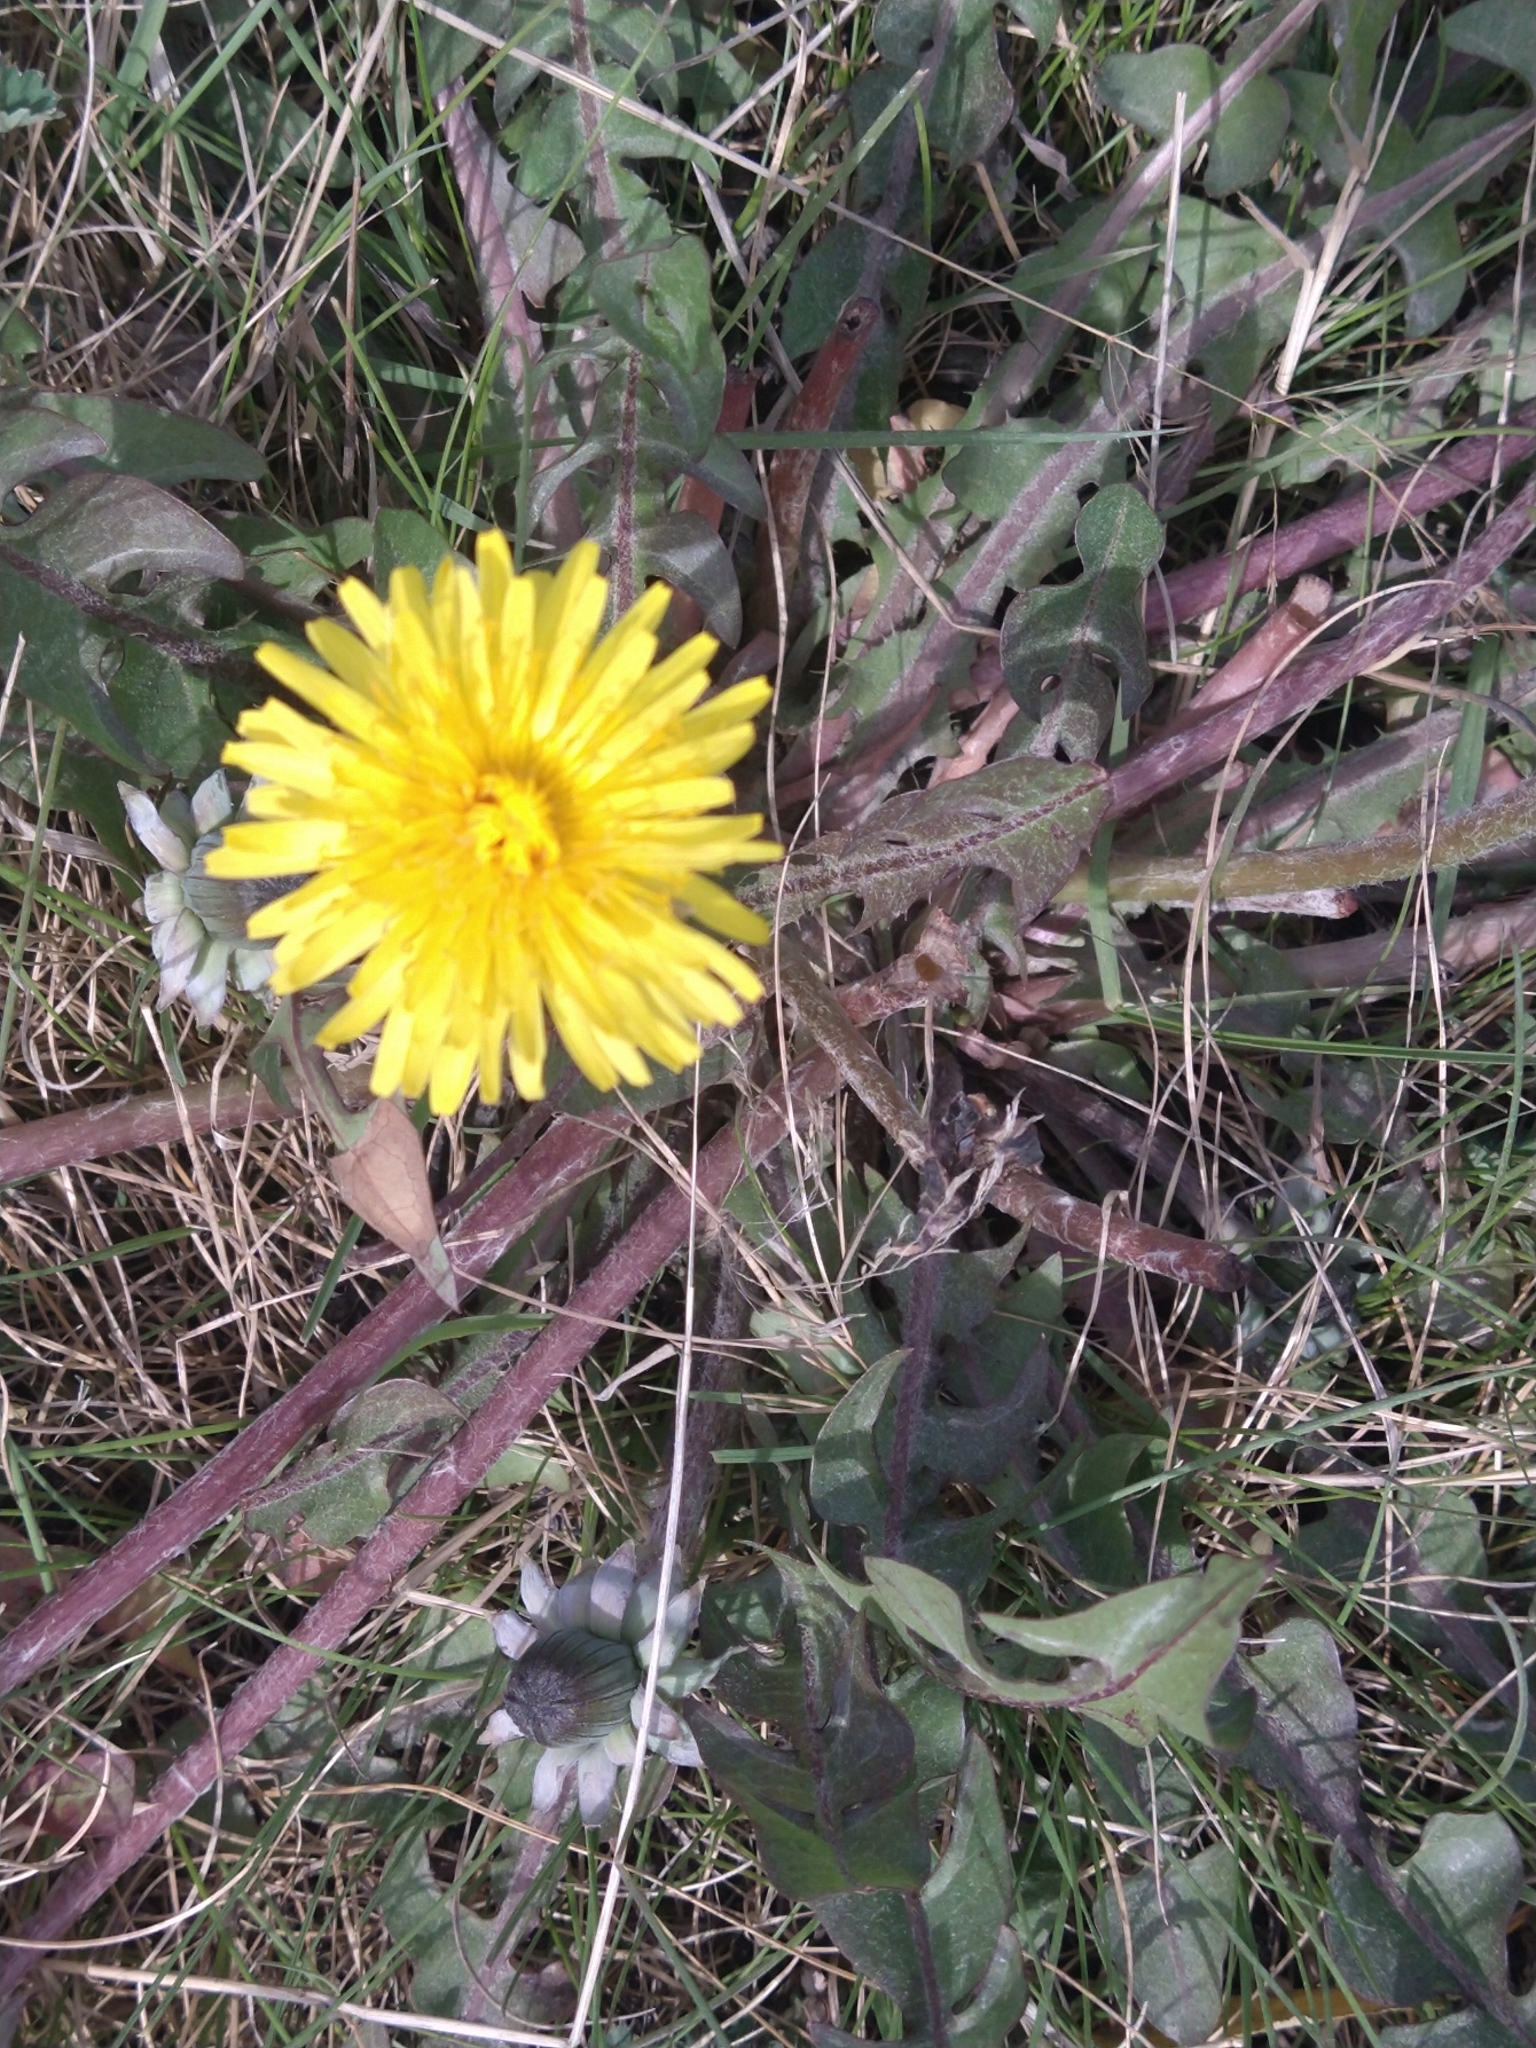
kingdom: Plantae
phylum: Tracheophyta
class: Magnoliopsida
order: Asterales
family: Asteraceae
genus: Taraxacum
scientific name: Taraxacum officinale
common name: Common dandelion
